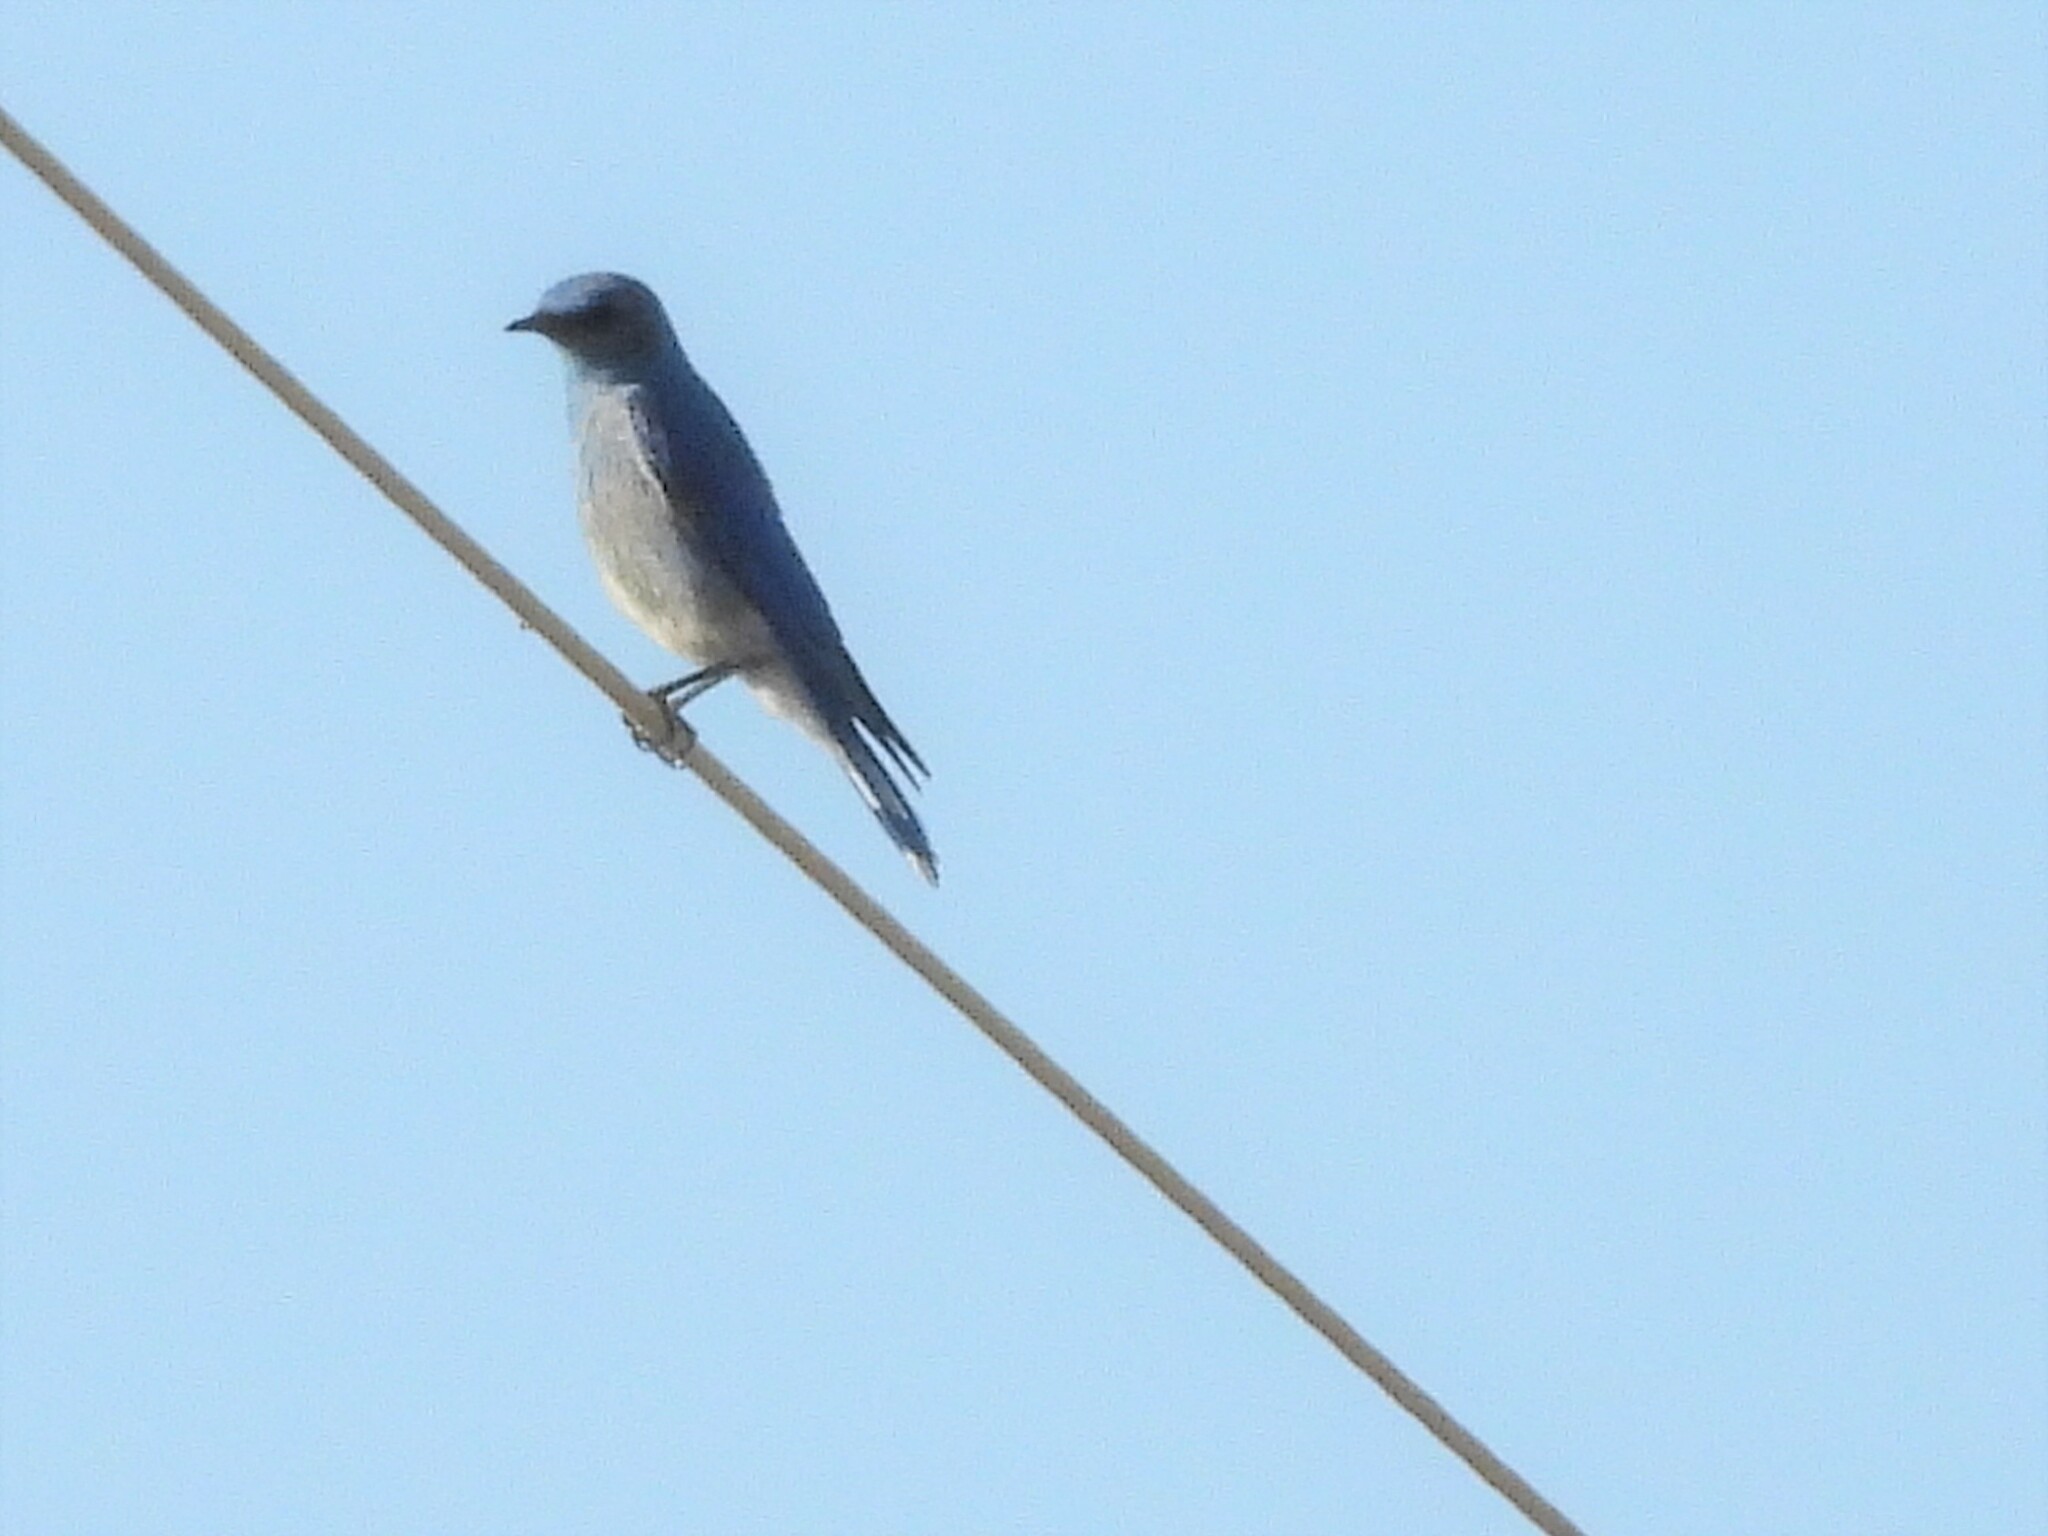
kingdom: Animalia
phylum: Chordata
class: Aves
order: Passeriformes
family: Turdidae
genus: Sialia
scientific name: Sialia currucoides
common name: Mountain bluebird
